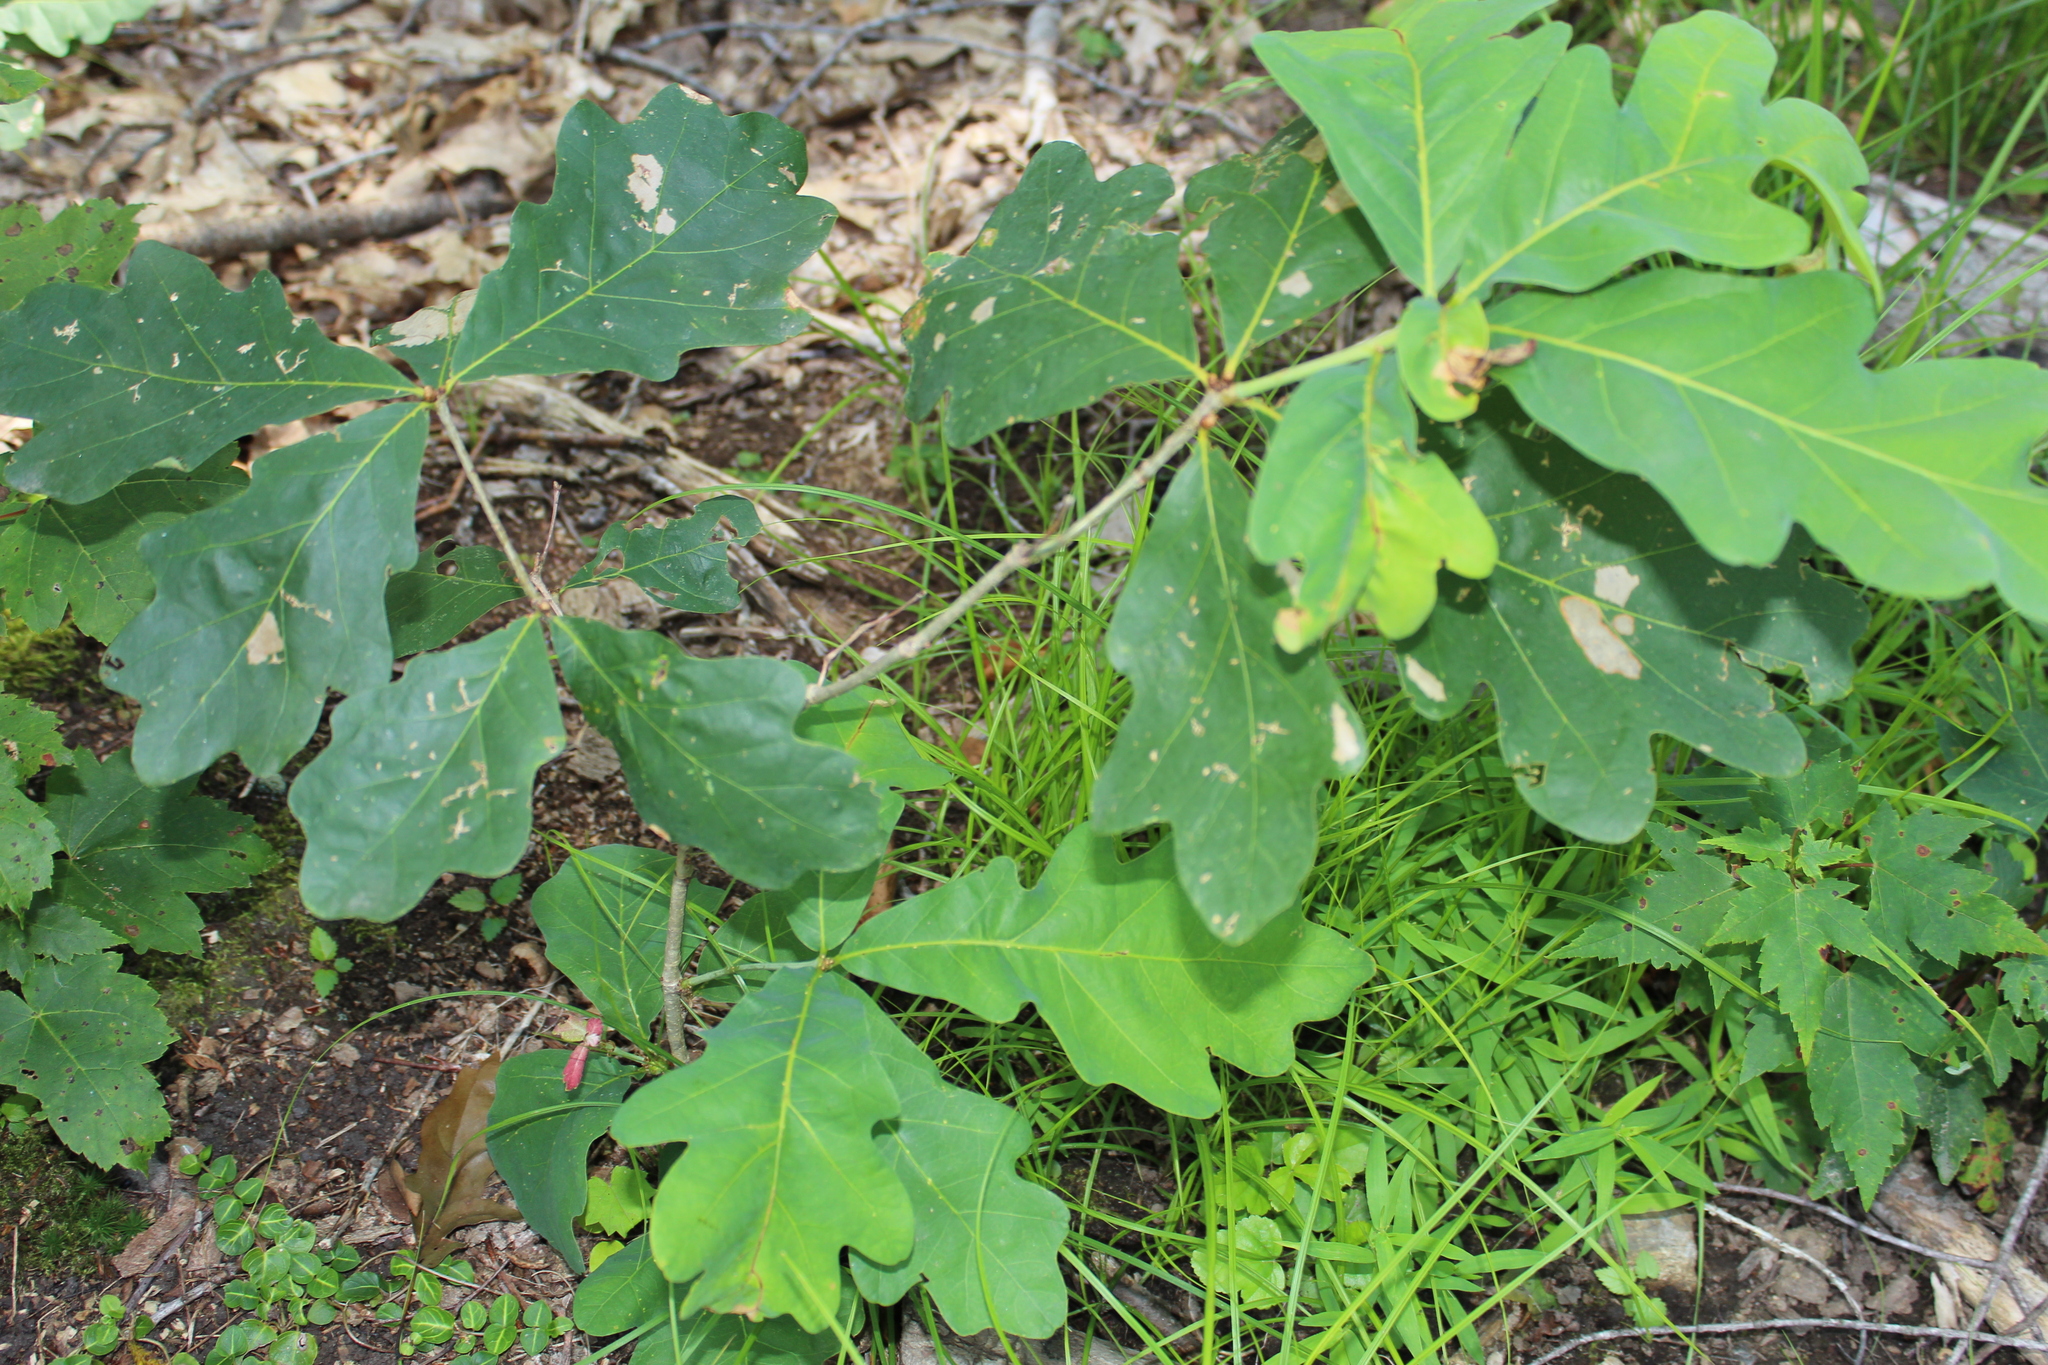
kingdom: Plantae
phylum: Tracheophyta
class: Magnoliopsida
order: Fagales
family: Fagaceae
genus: Quercus
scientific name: Quercus alba
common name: White oak
